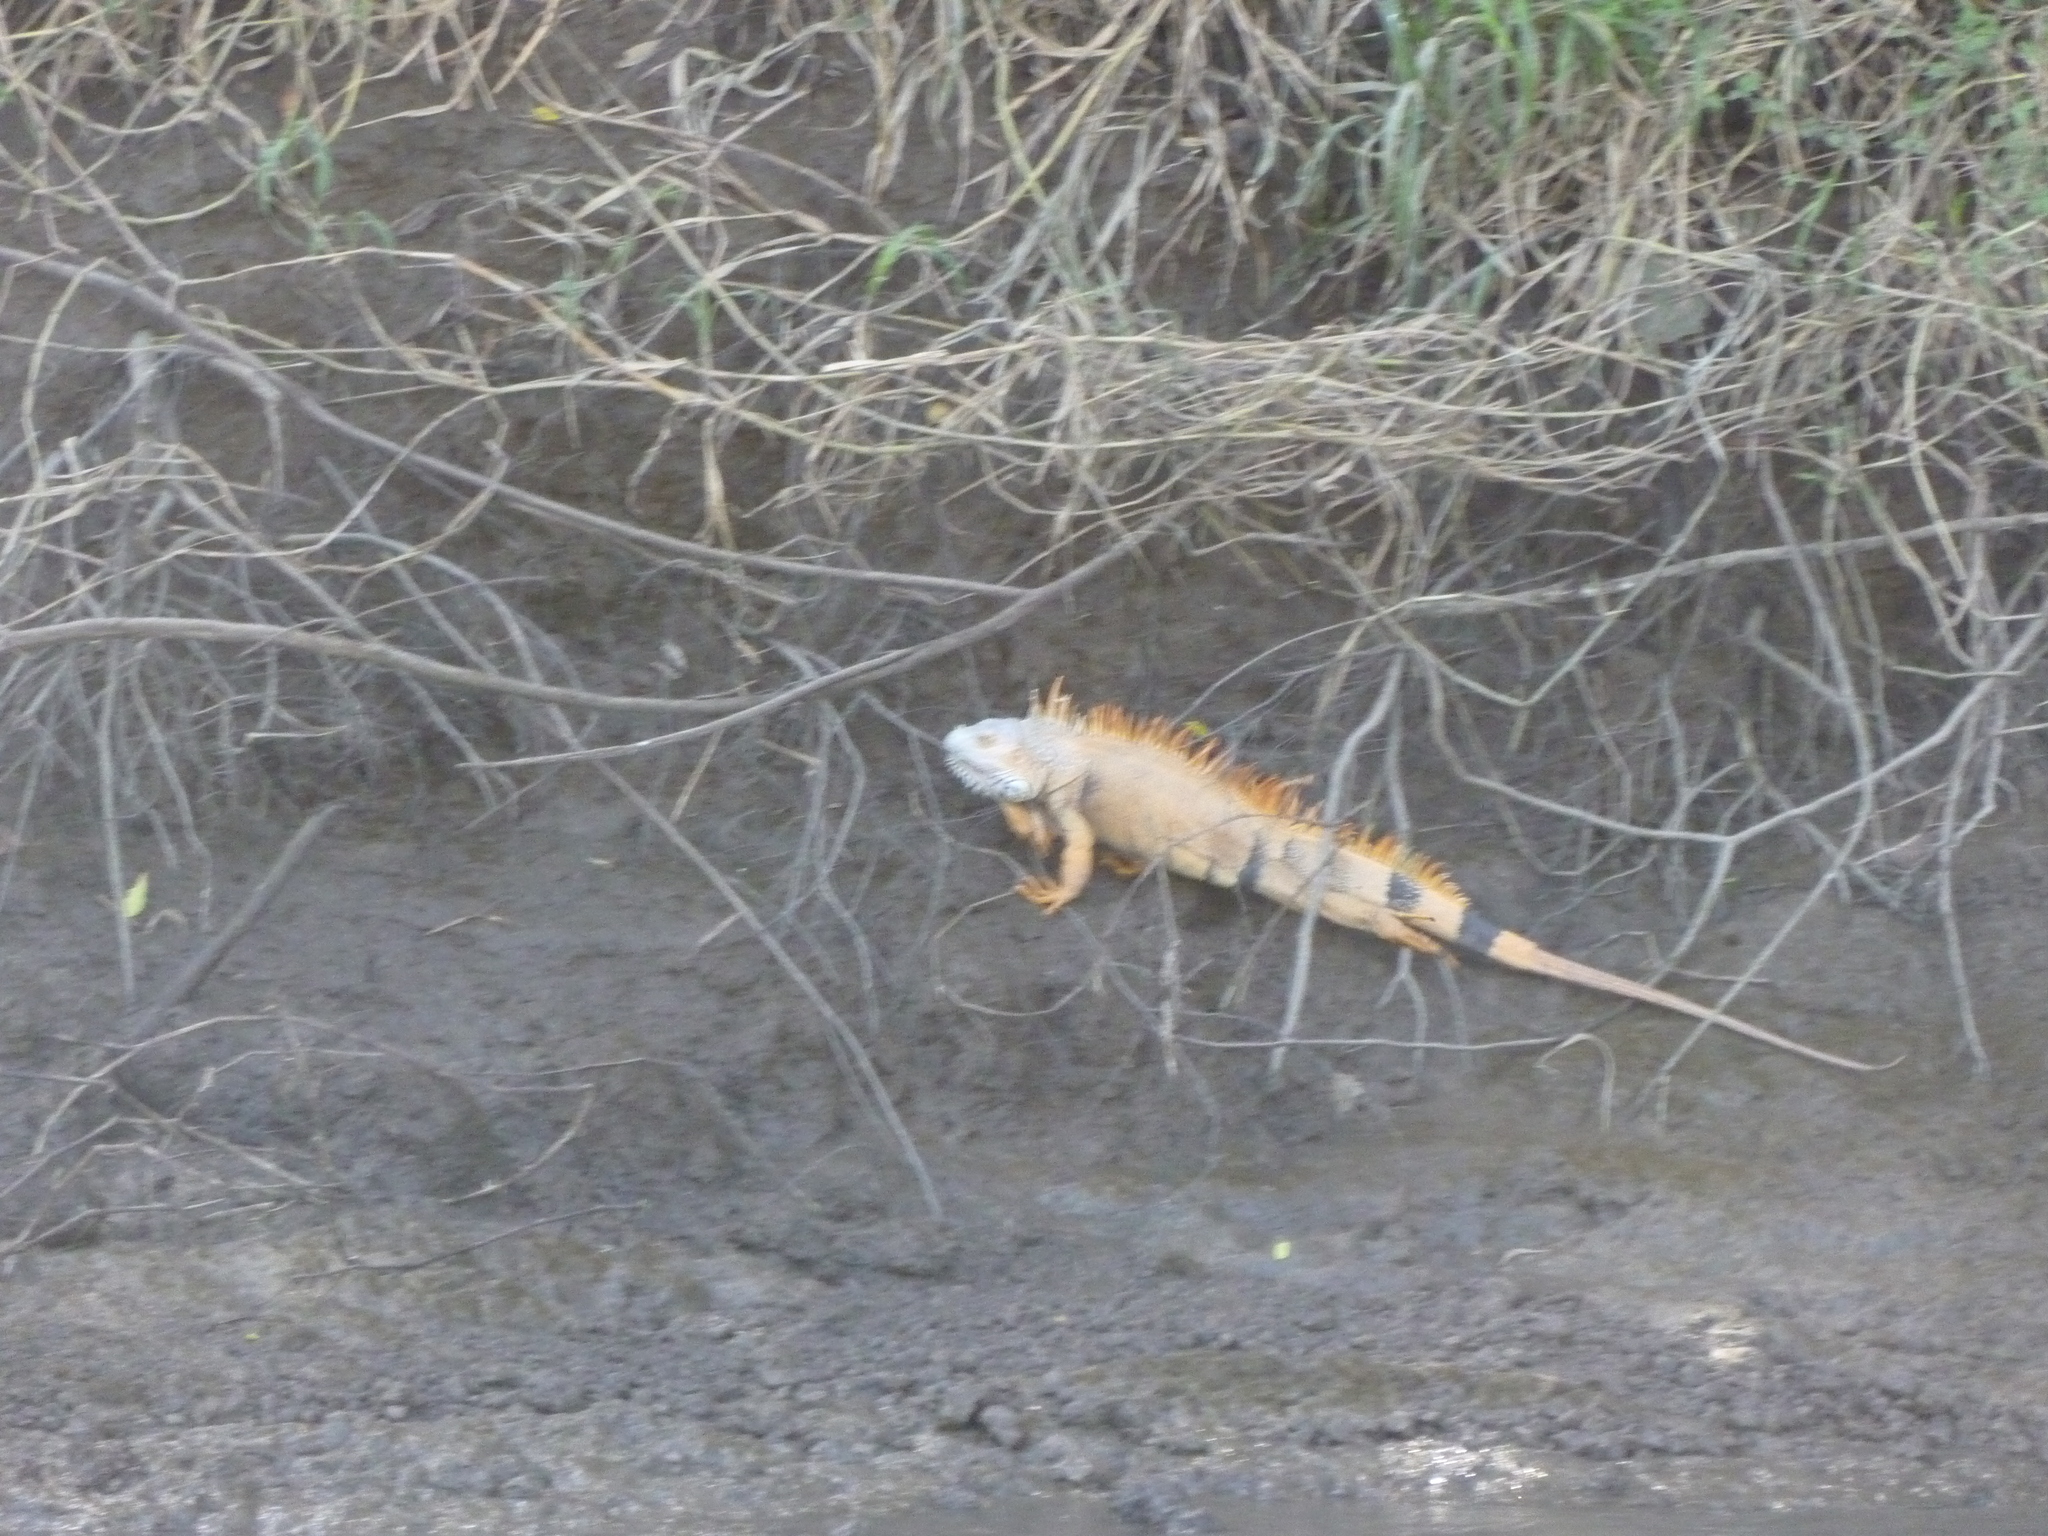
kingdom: Animalia
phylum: Chordata
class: Squamata
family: Iguanidae
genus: Iguana
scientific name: Iguana iguana
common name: Green iguana
